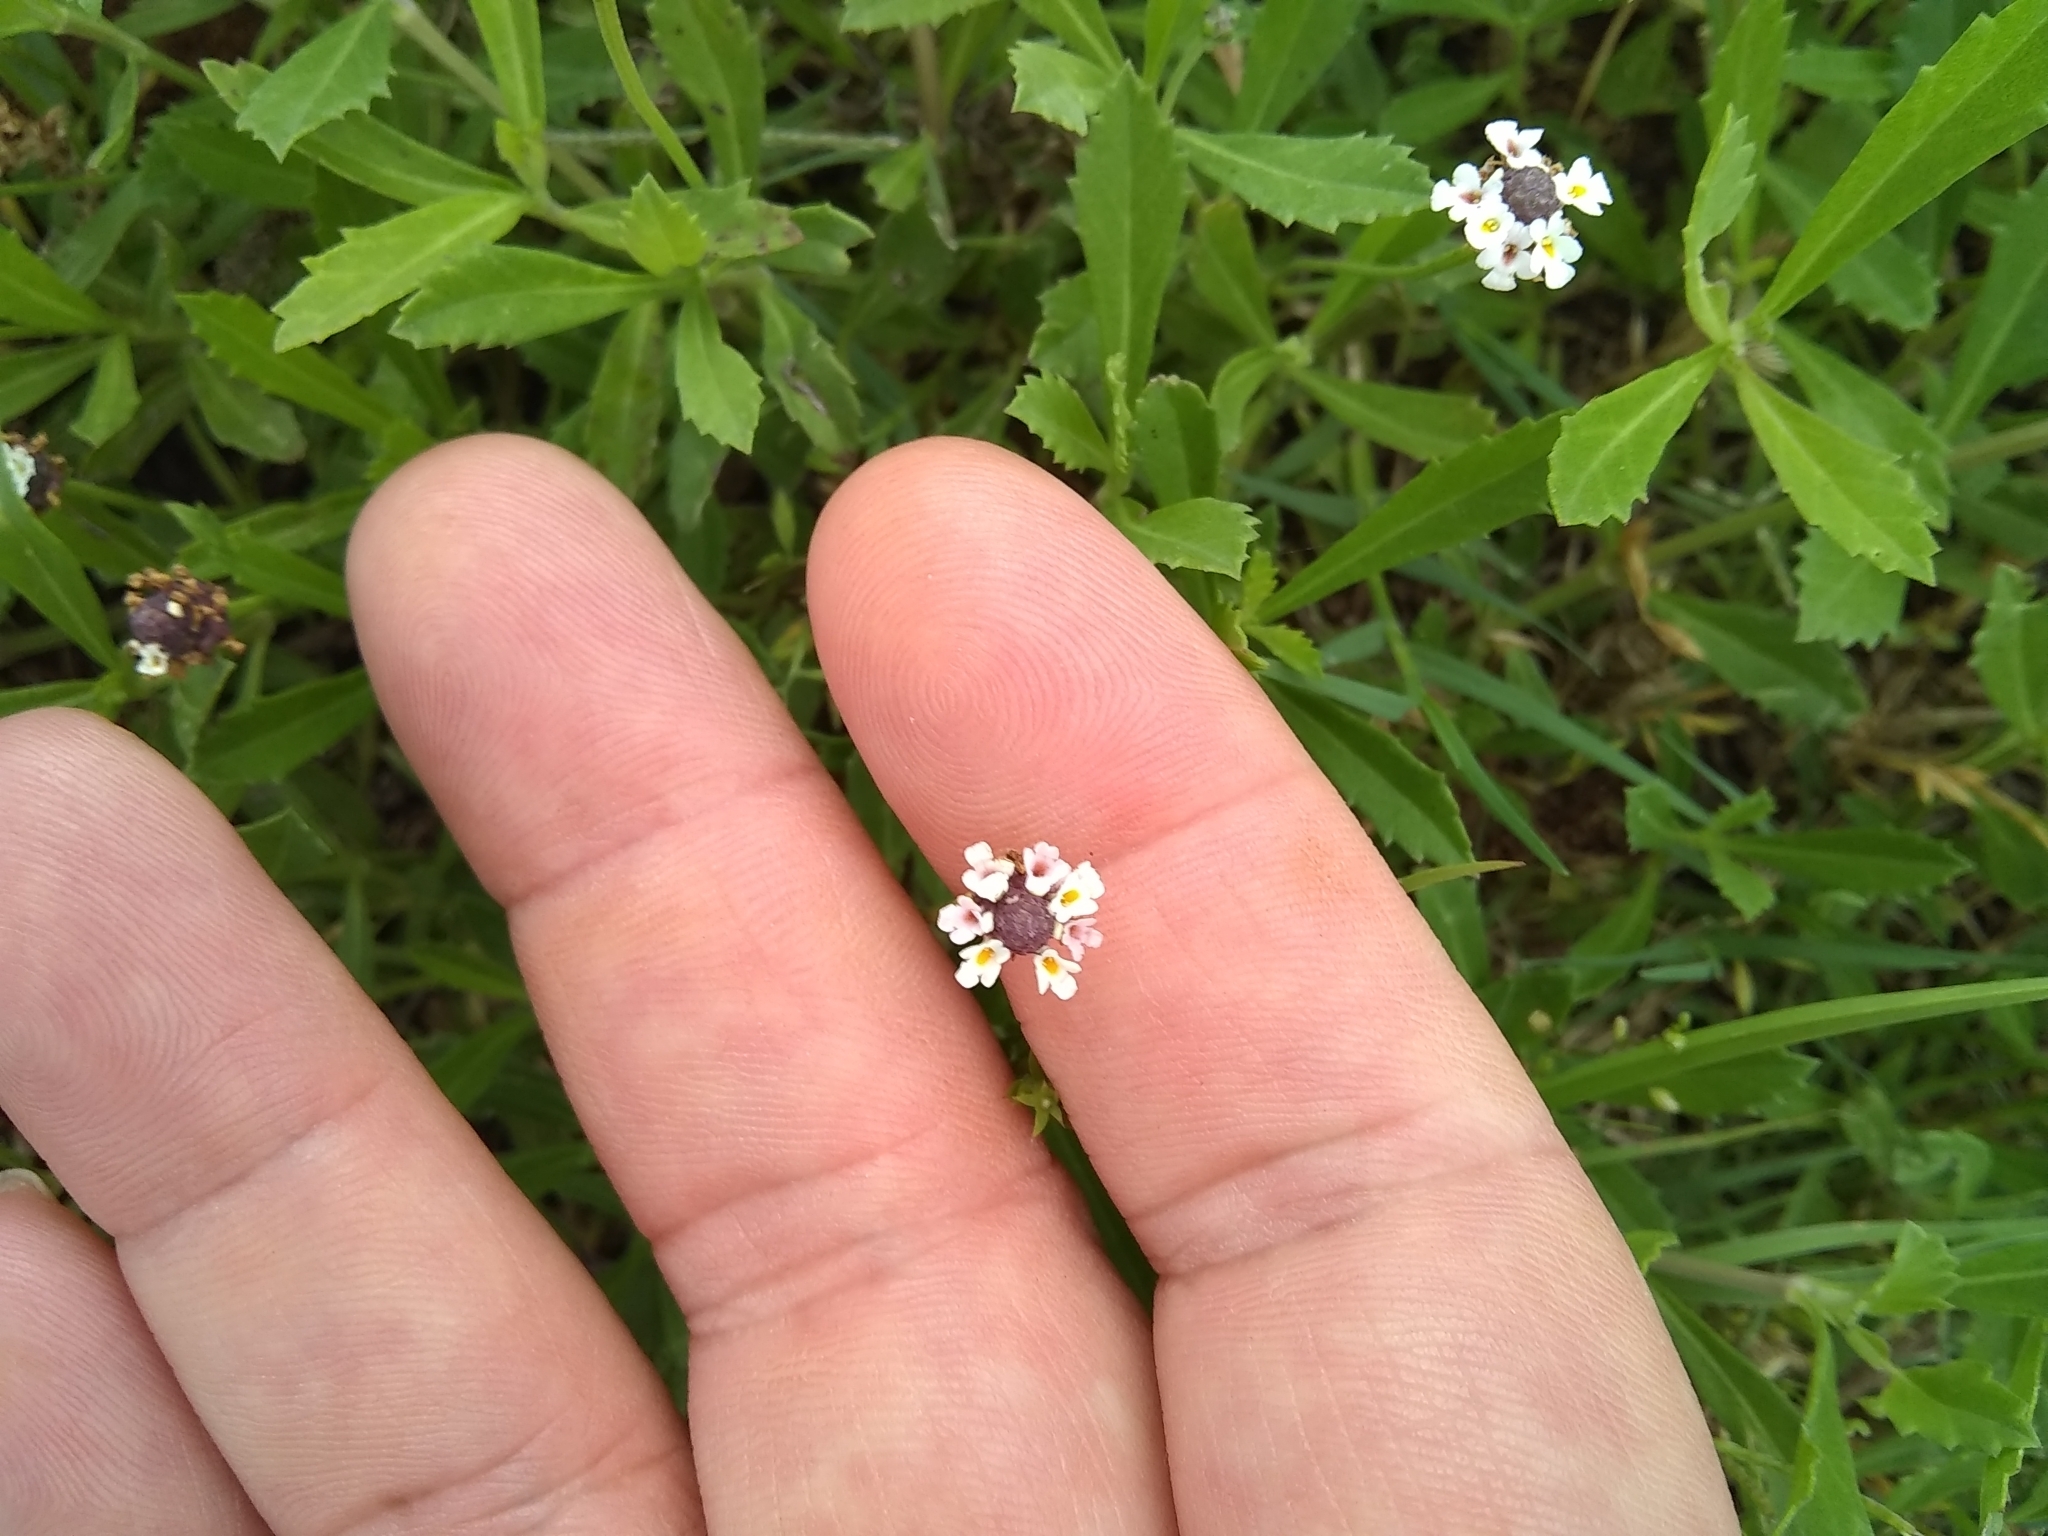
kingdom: Plantae
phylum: Tracheophyta
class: Magnoliopsida
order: Lamiales
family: Verbenaceae
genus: Phyla
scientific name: Phyla nodiflora
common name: Frogfruit
